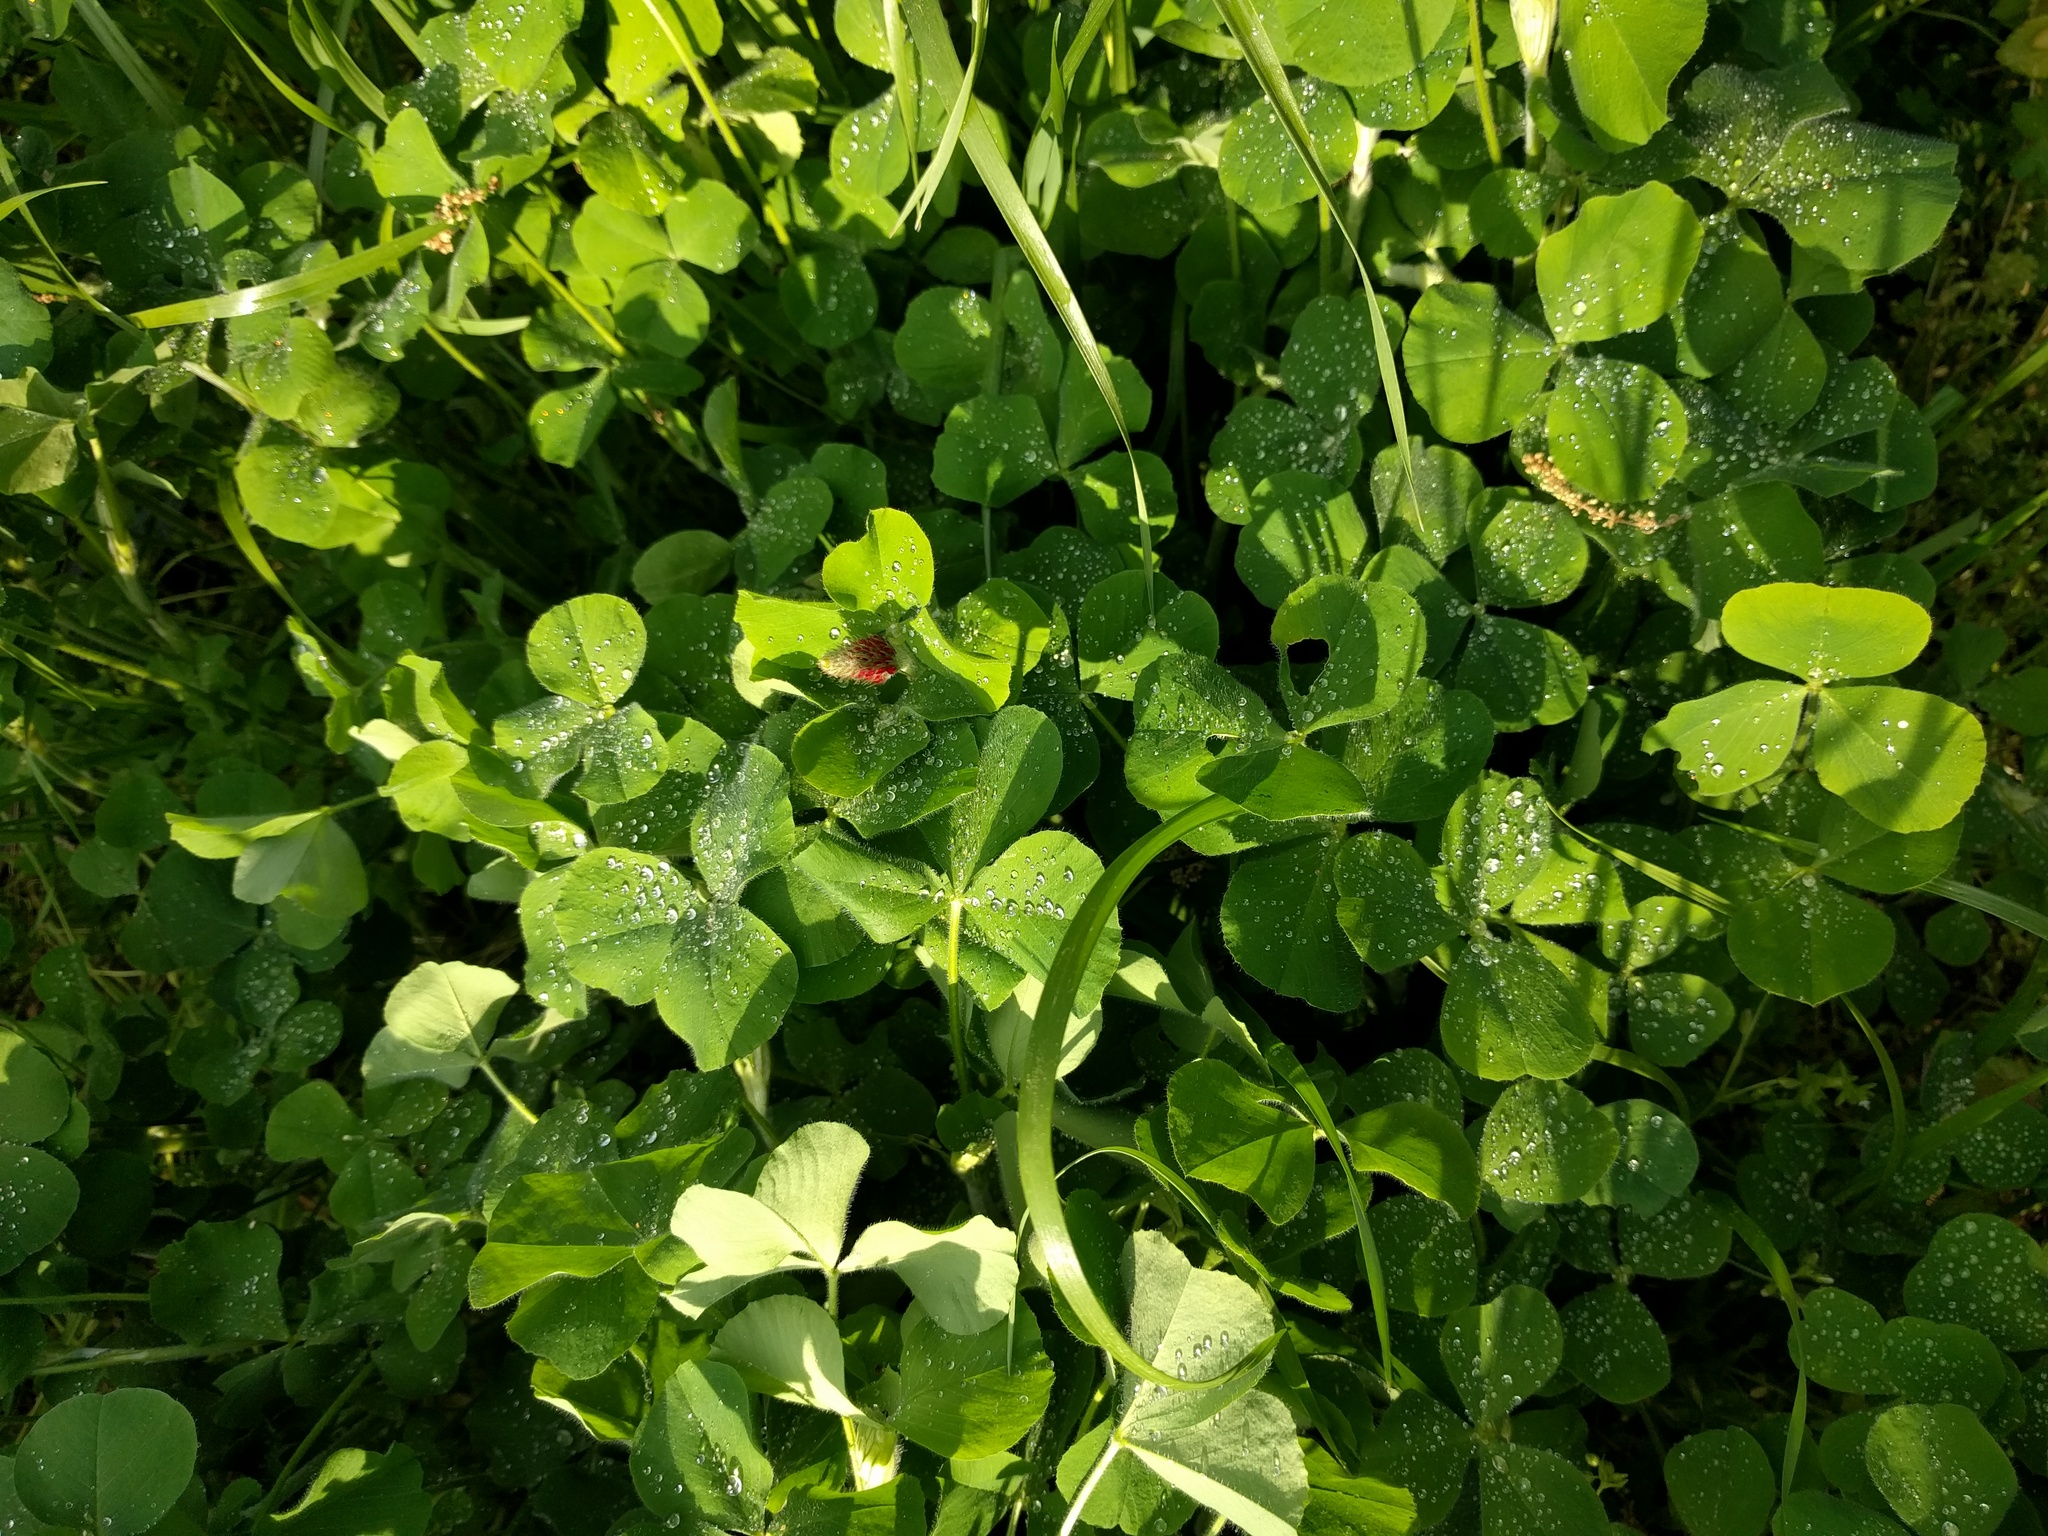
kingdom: Plantae
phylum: Tracheophyta
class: Magnoliopsida
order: Fabales
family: Fabaceae
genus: Trifolium
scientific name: Trifolium incarnatum
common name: Crimson clover
